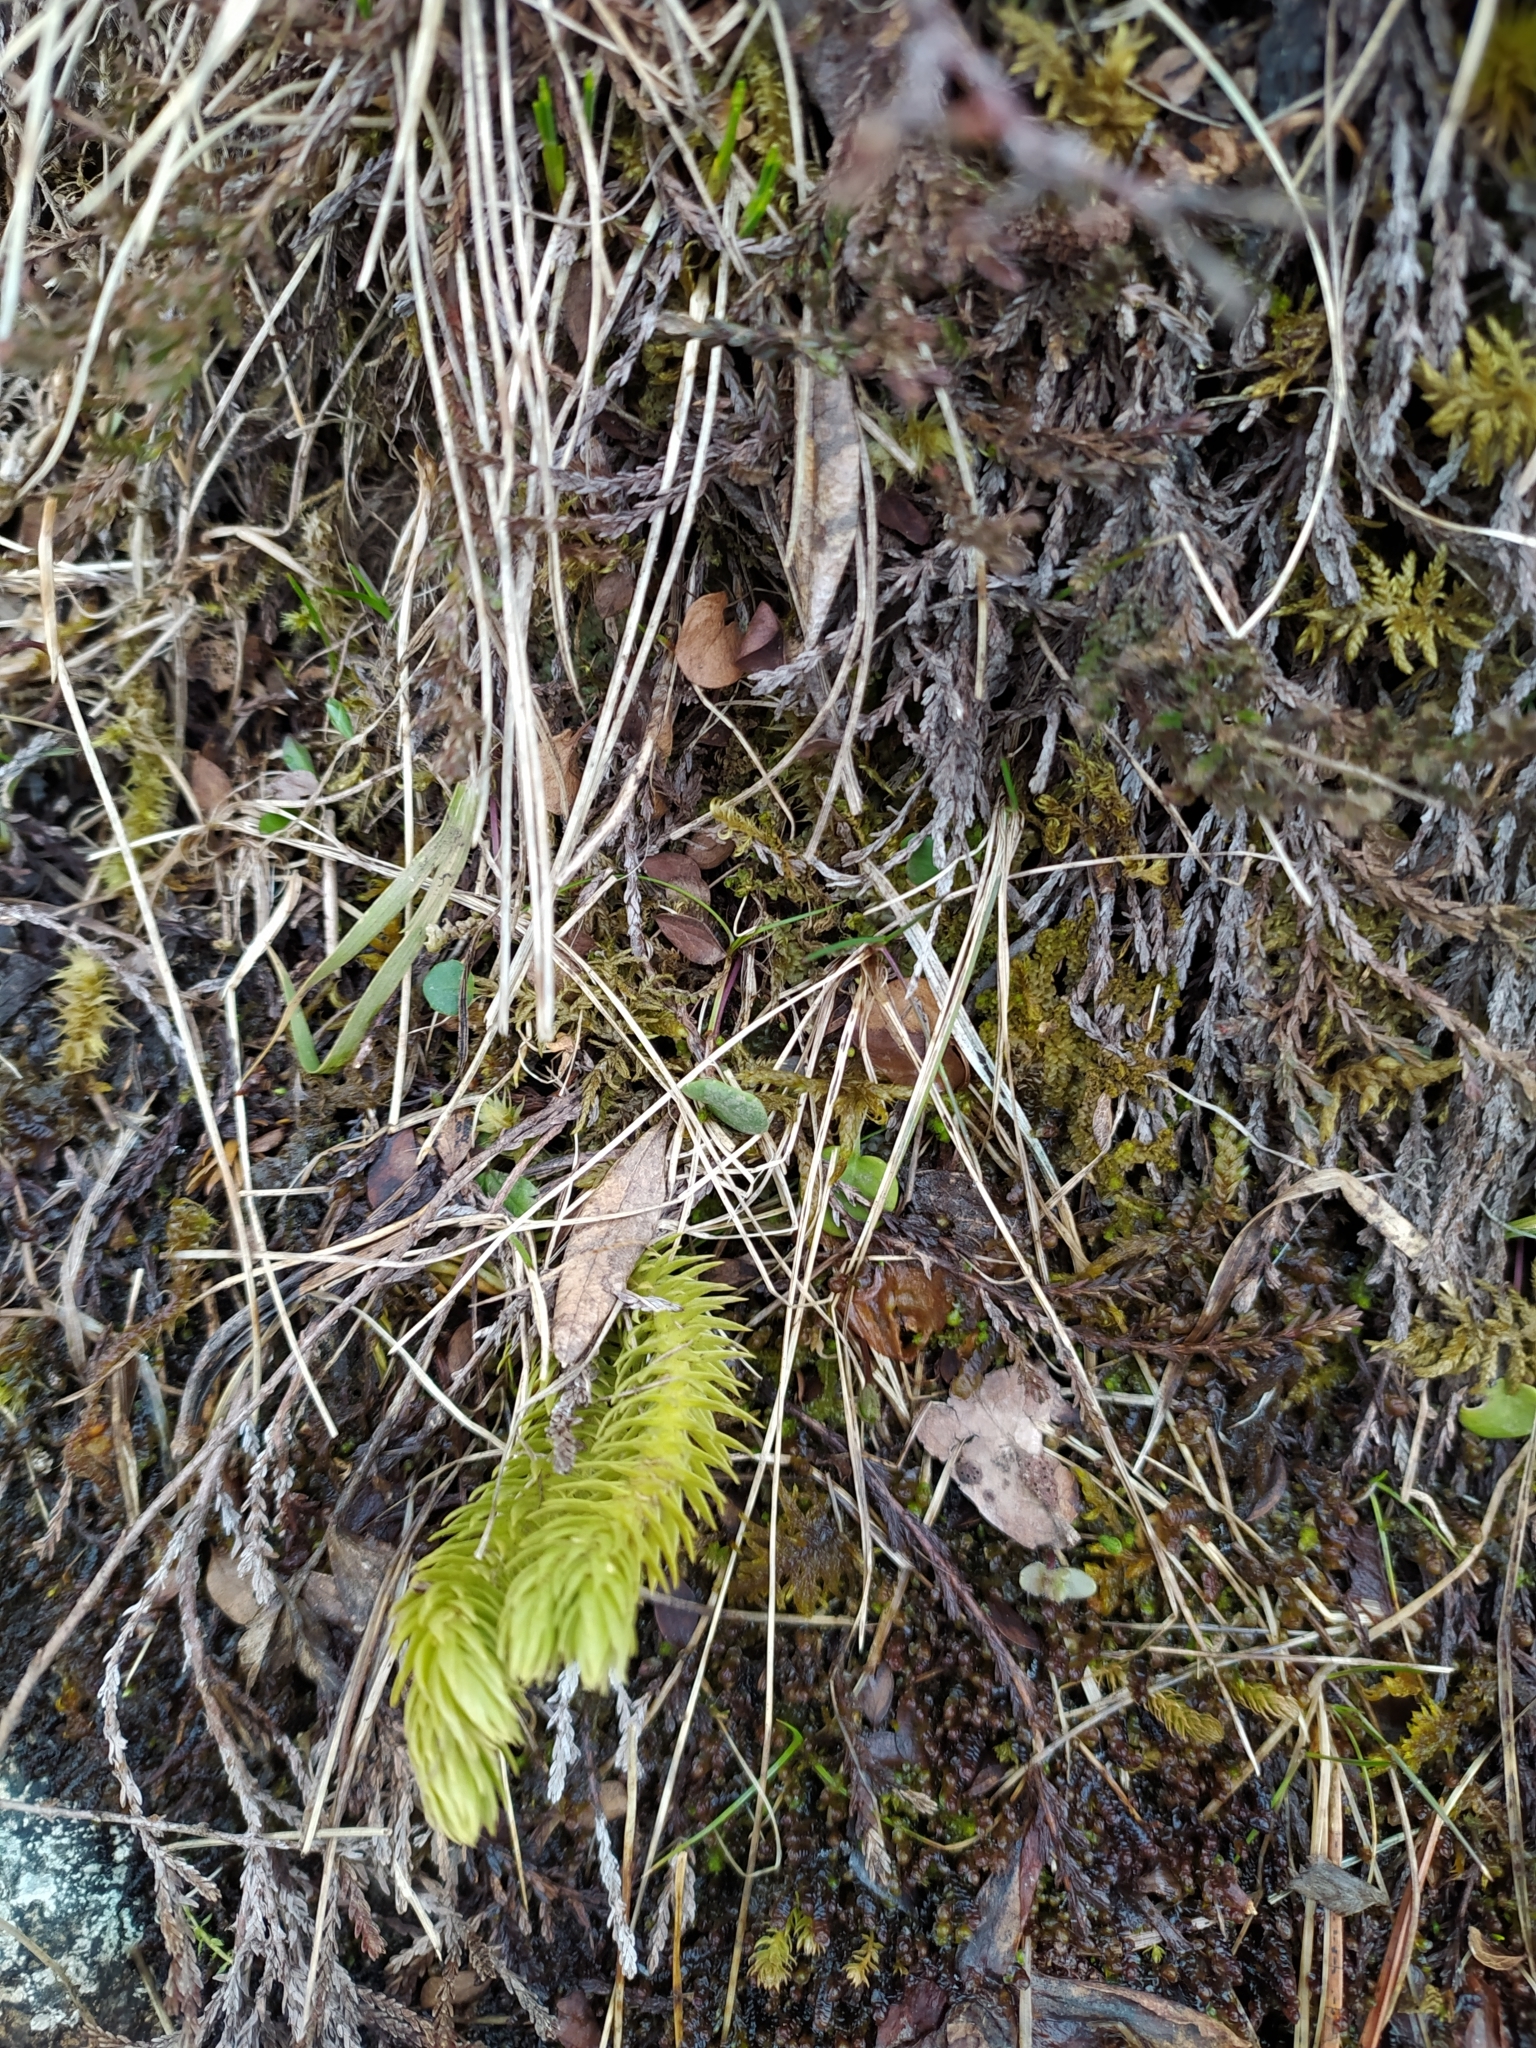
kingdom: Plantae
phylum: Tracheophyta
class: Lycopodiopsida
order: Lycopodiales
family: Lycopodiaceae
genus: Huperzia
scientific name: Huperzia selago
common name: Northern firmoss
